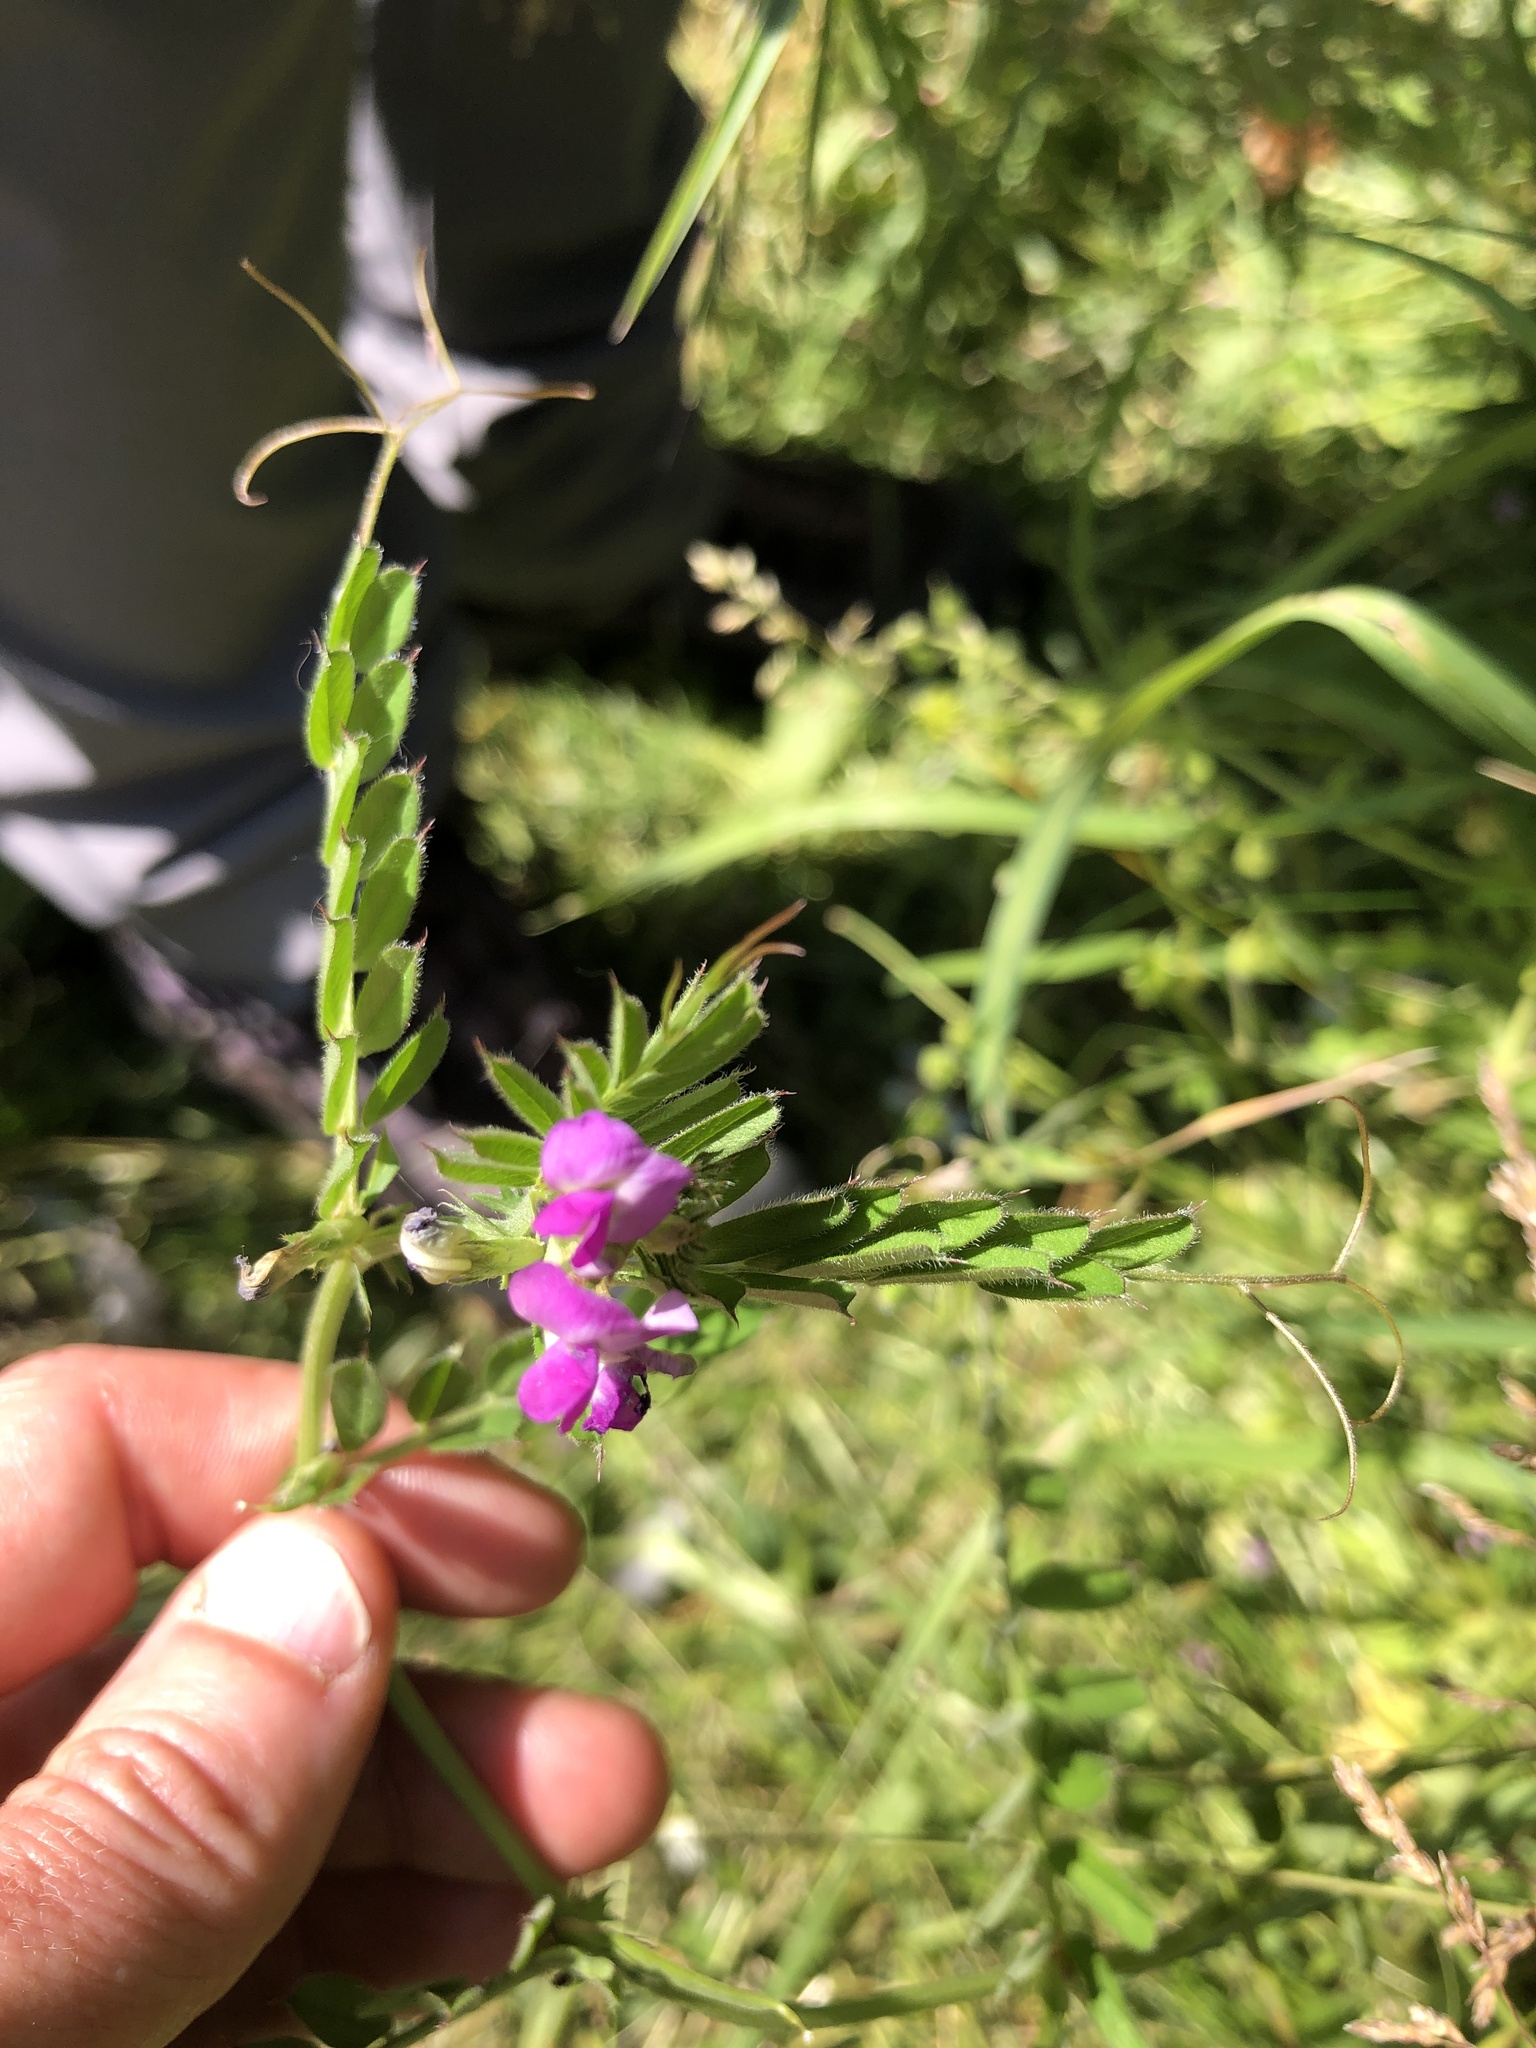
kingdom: Plantae
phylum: Tracheophyta
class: Magnoliopsida
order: Fabales
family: Fabaceae
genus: Vicia
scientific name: Vicia sativa
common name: Garden vetch
